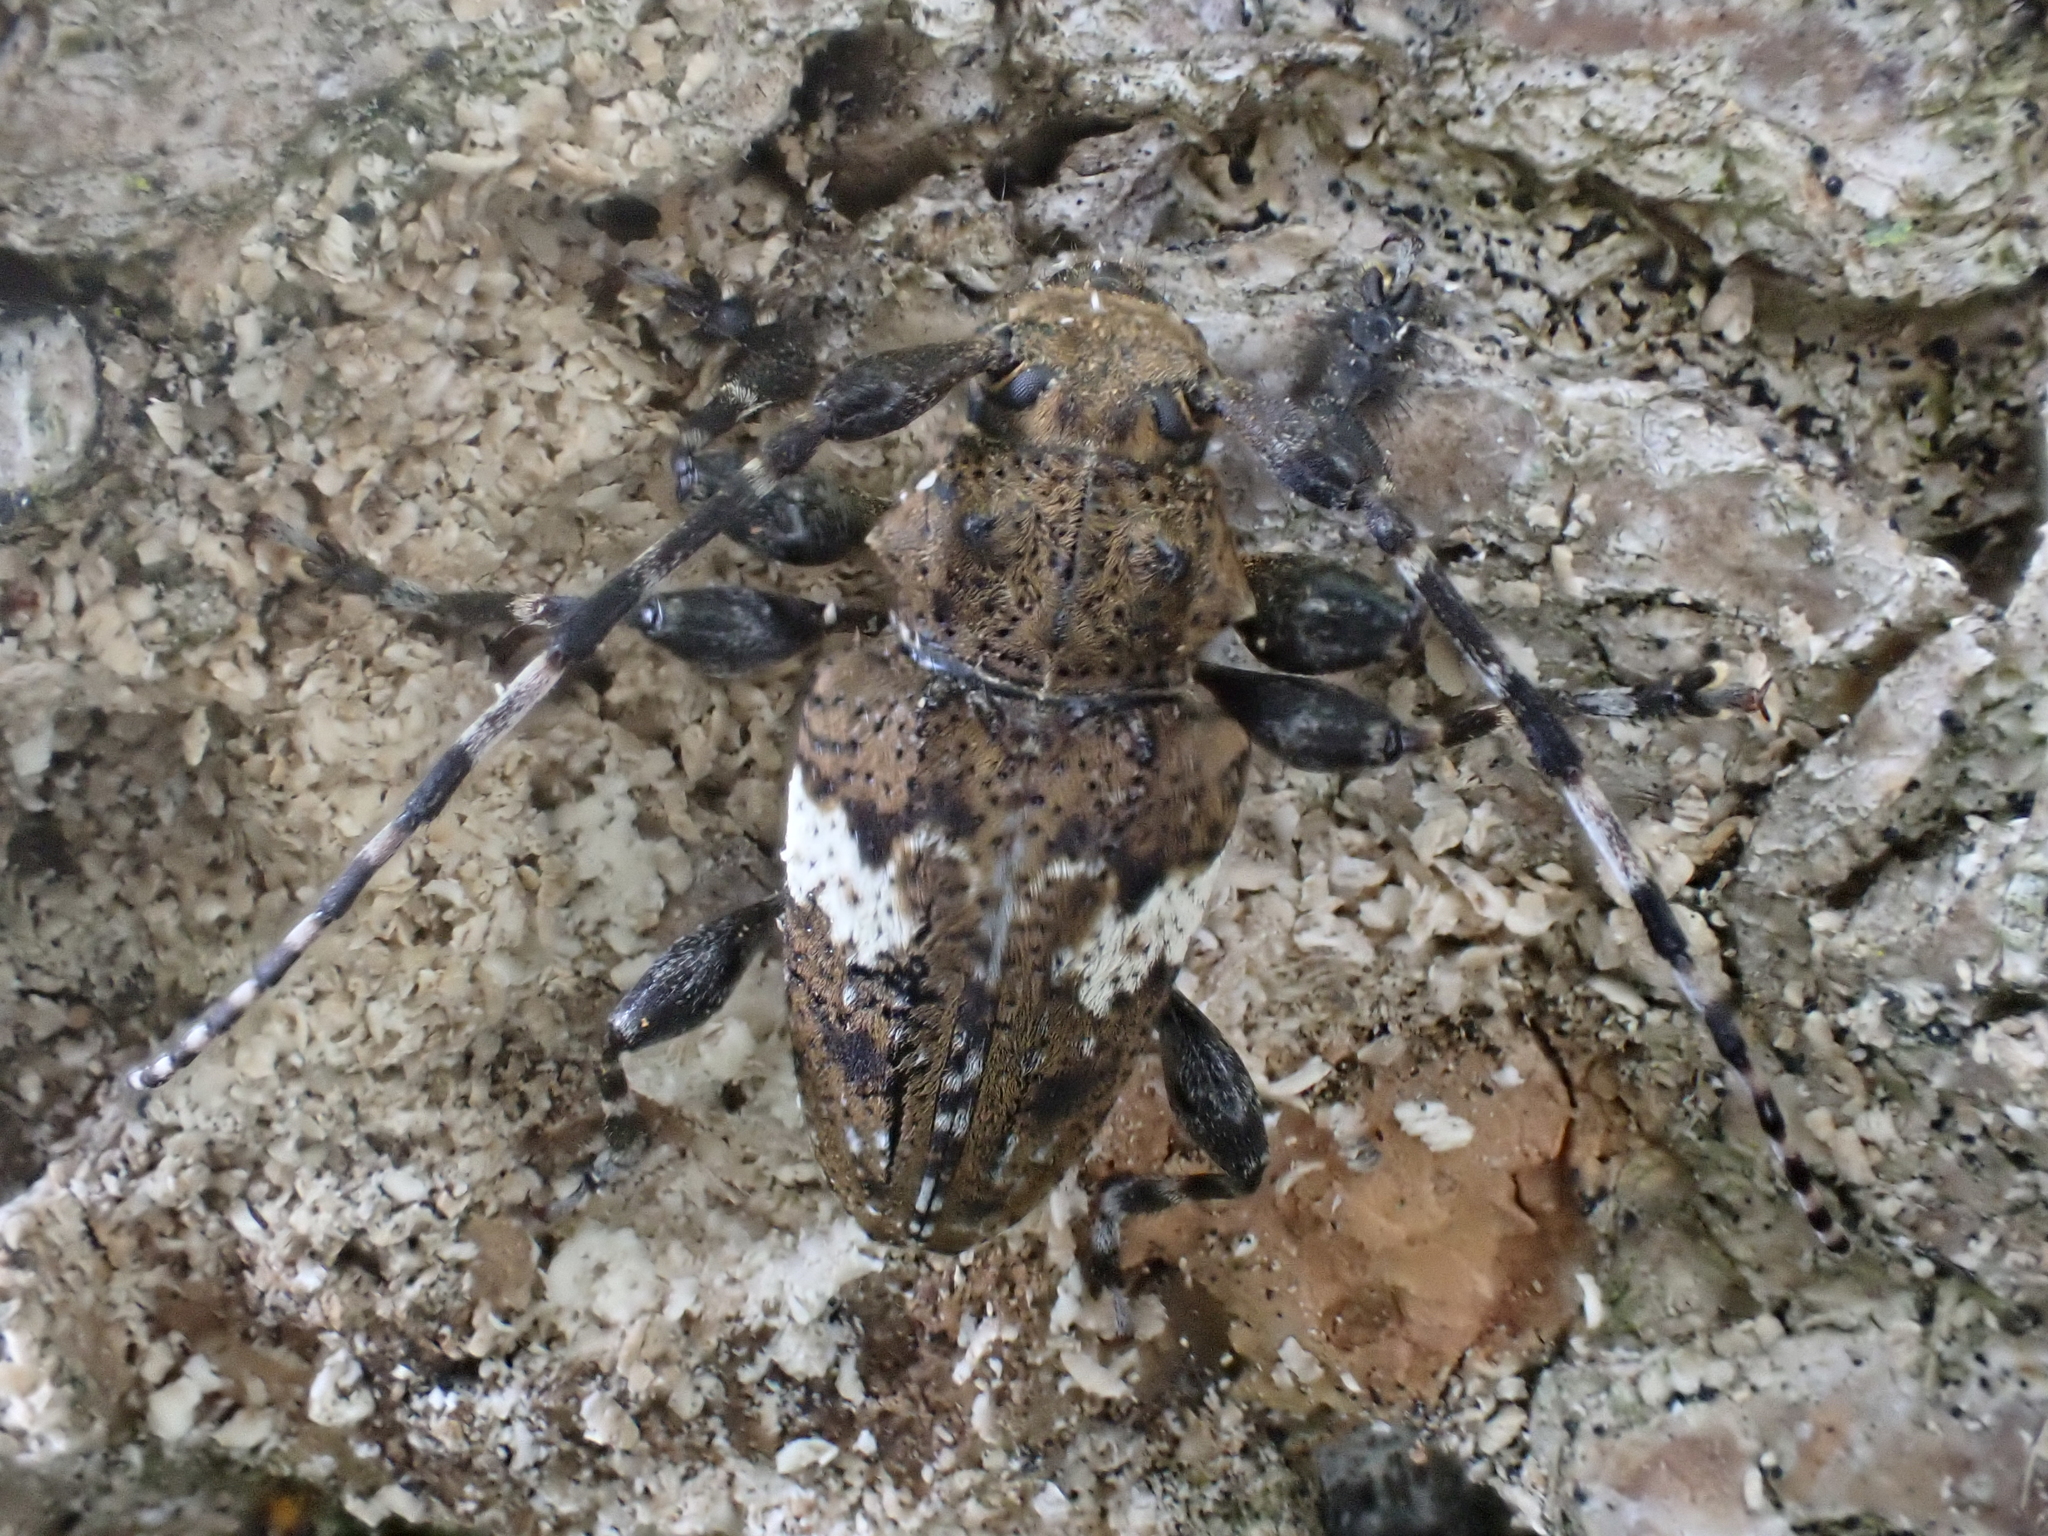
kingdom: Animalia
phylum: Arthropoda
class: Insecta
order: Coleoptera
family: Cerambycidae
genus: Acanthoderes
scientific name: Acanthoderes quadrigibba
